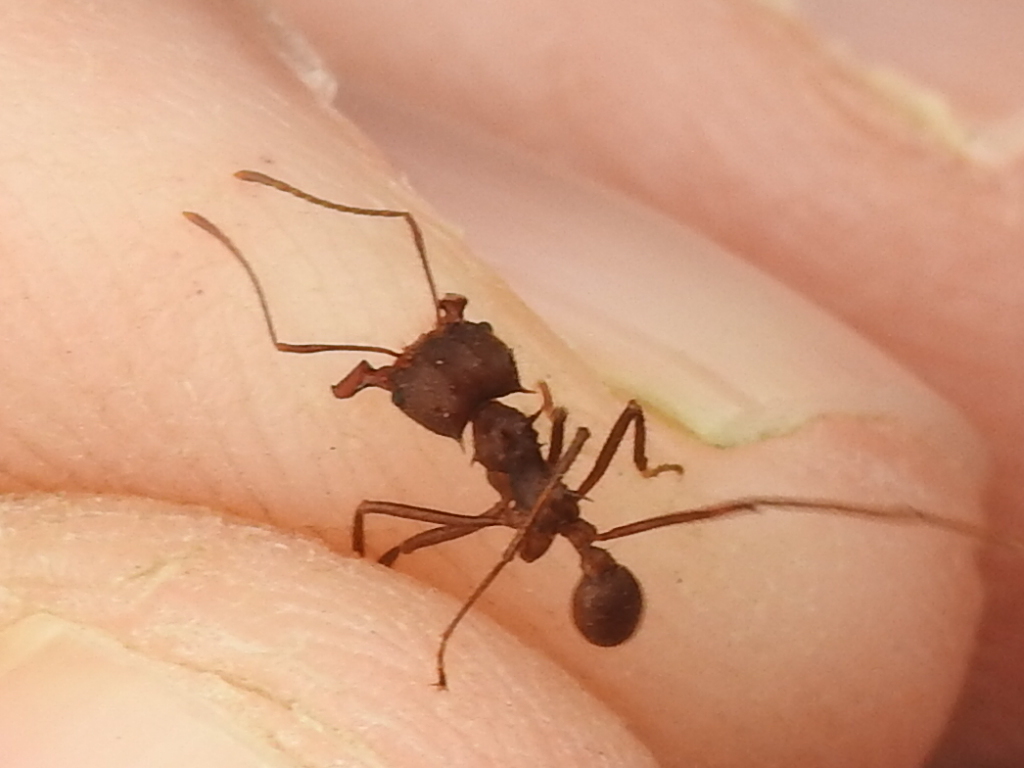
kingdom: Animalia
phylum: Arthropoda
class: Insecta
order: Hymenoptera
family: Formicidae
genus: Atta
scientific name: Atta texana
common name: Texas leafcutting ant
